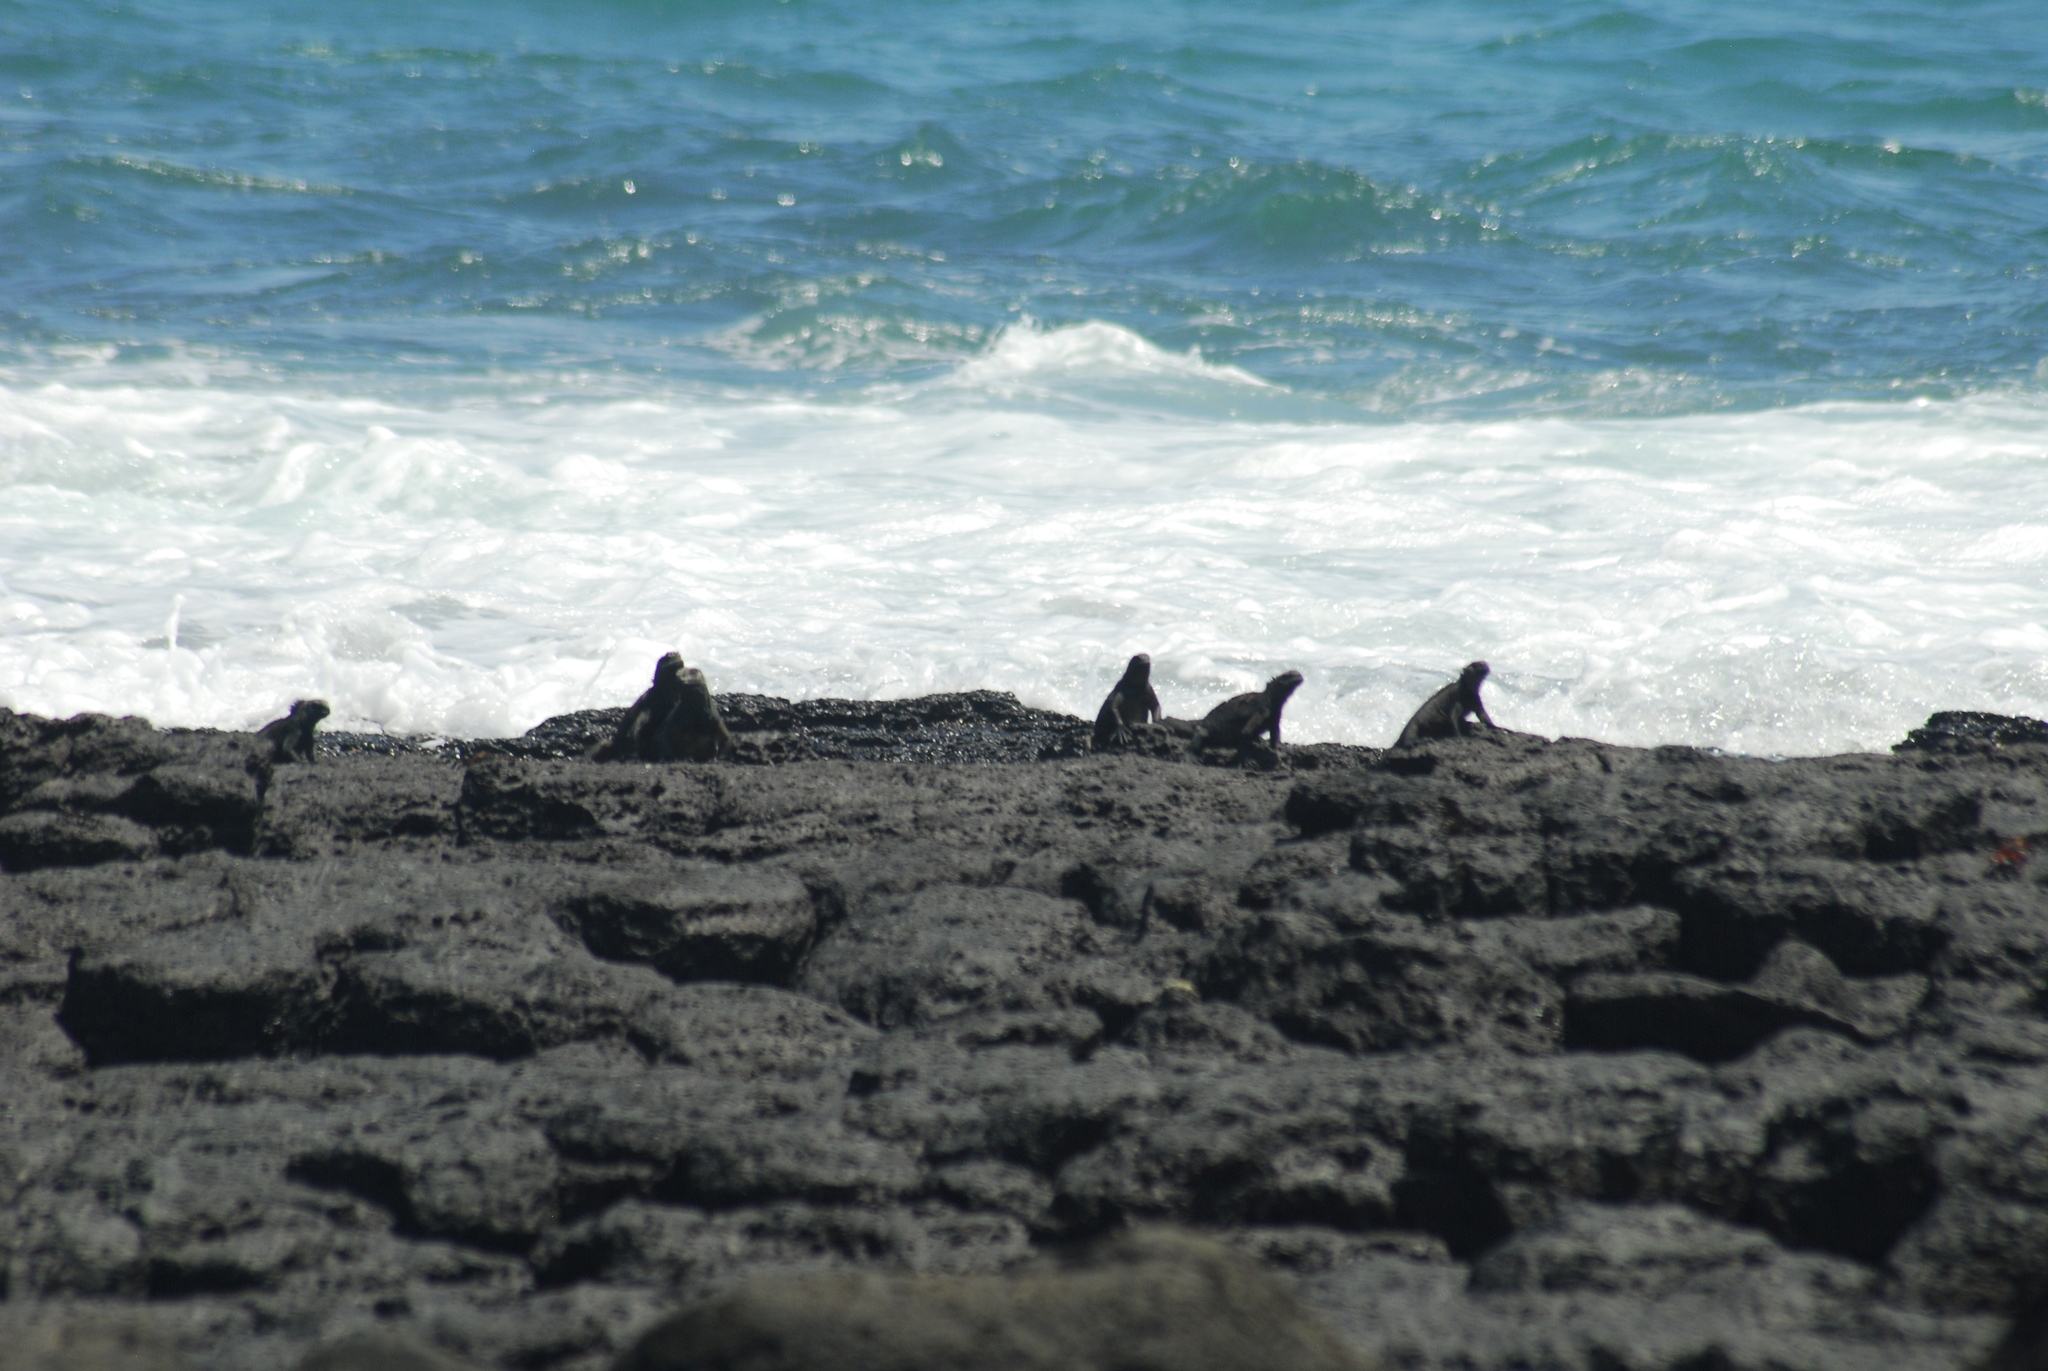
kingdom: Animalia
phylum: Chordata
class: Squamata
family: Iguanidae
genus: Amblyrhynchus
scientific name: Amblyrhynchus cristatus
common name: Marine iguana
